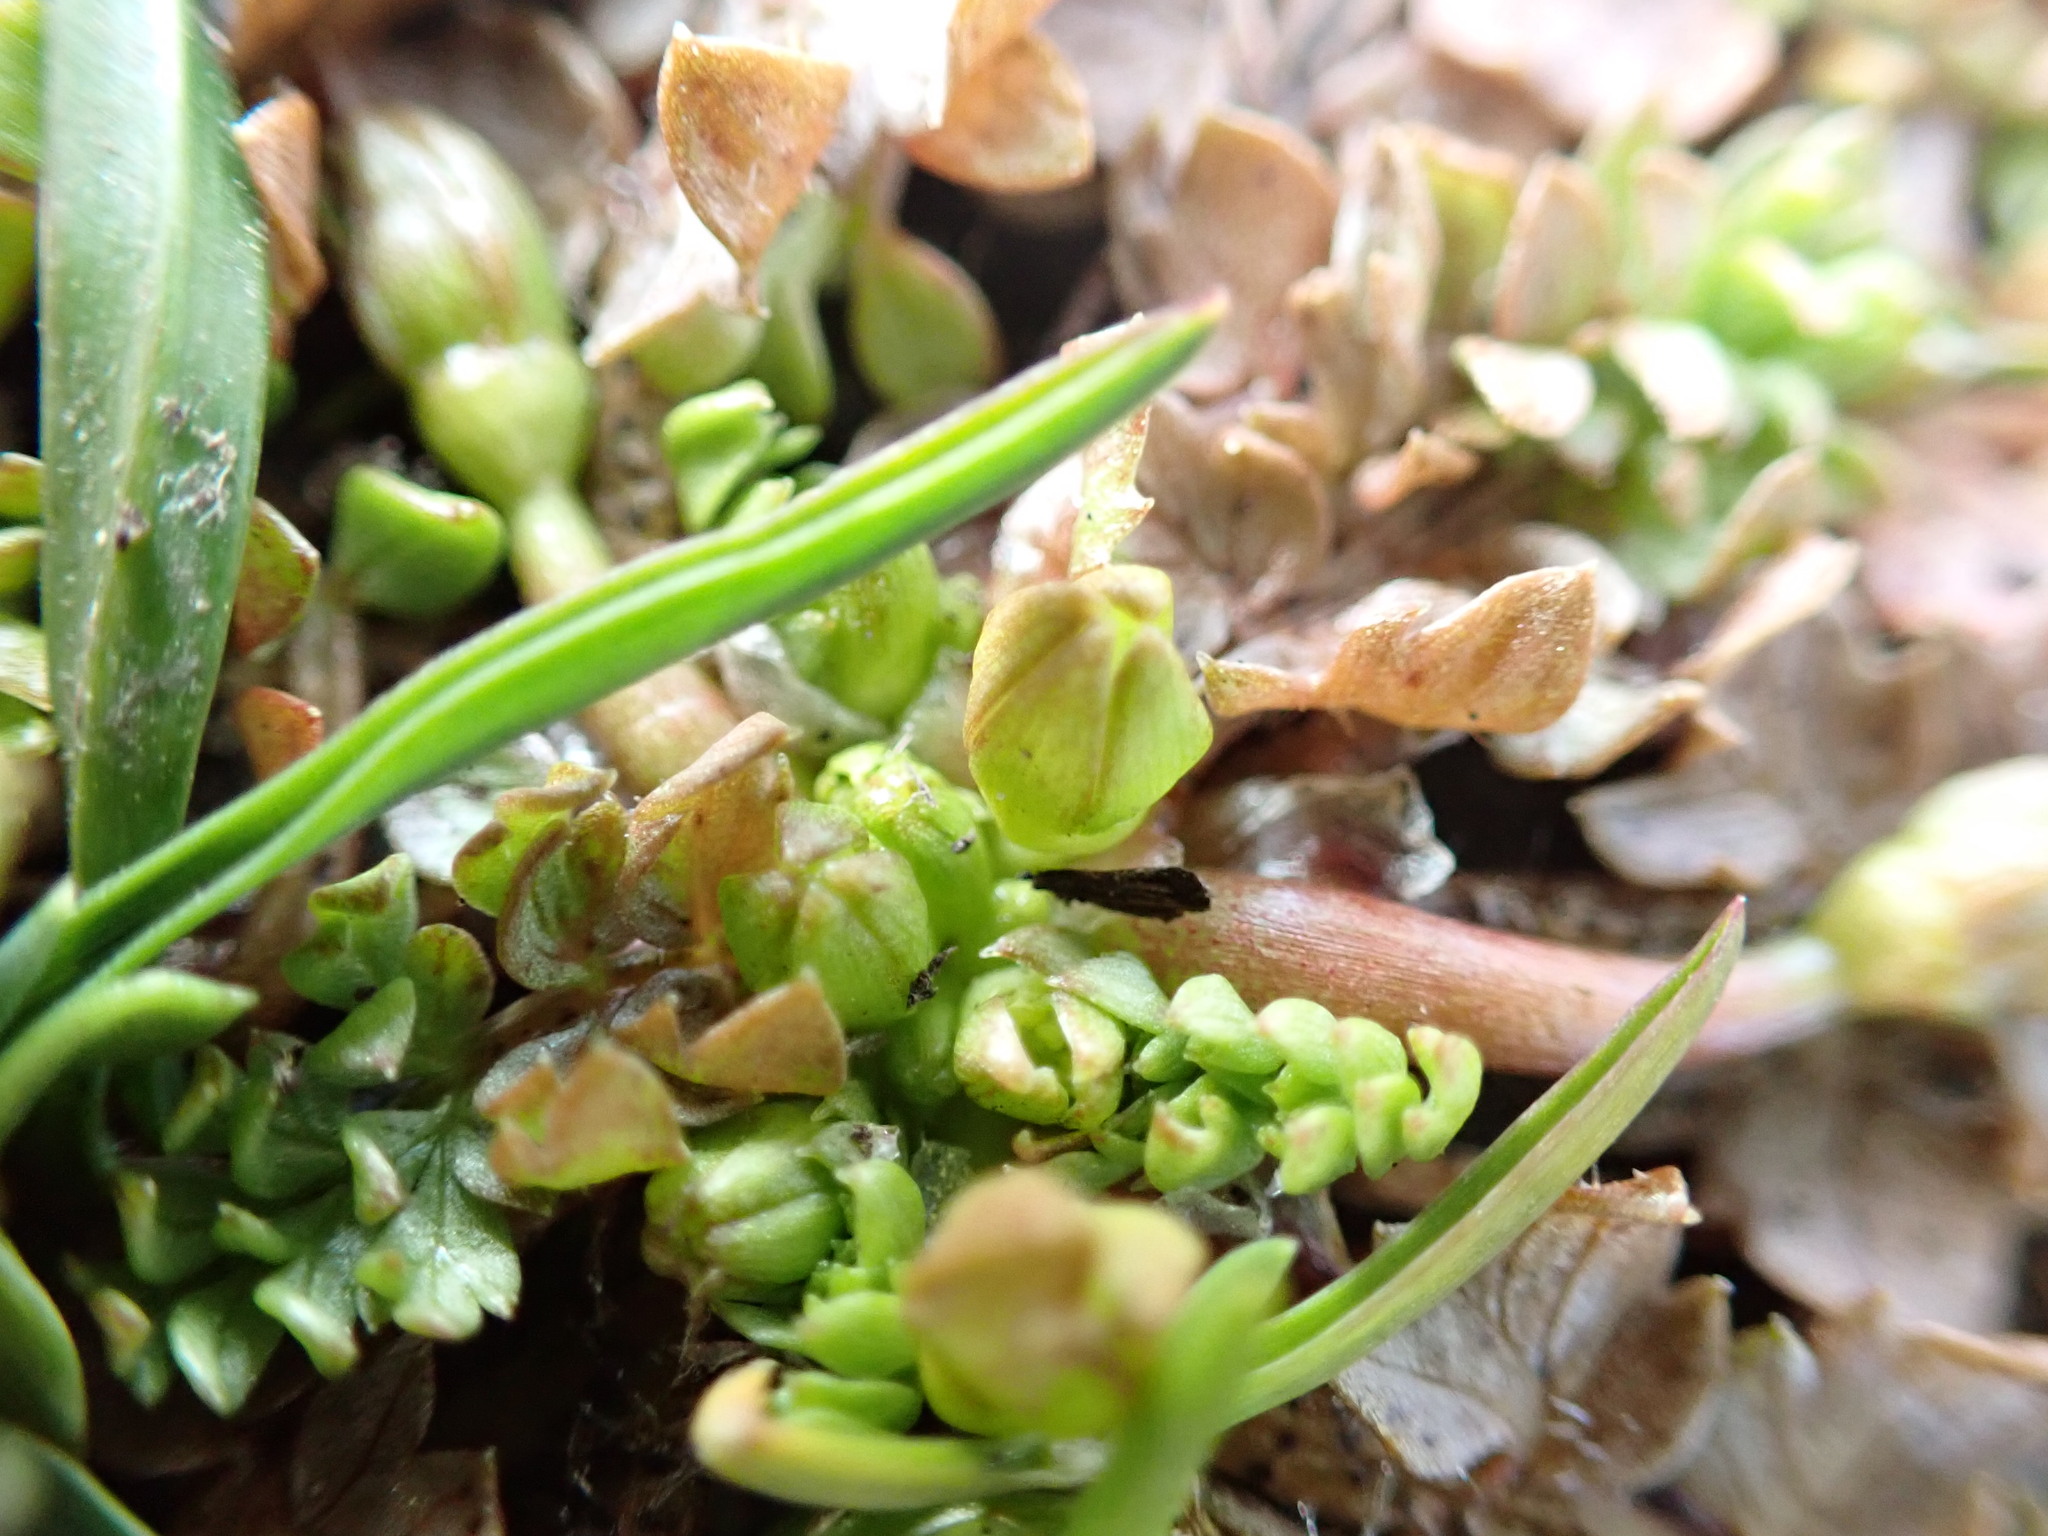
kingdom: Plantae
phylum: Tracheophyta
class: Magnoliopsida
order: Brassicales
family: Limnanthaceae
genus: Limnanthes
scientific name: Limnanthes macounii
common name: Macoun's meadowfoam
